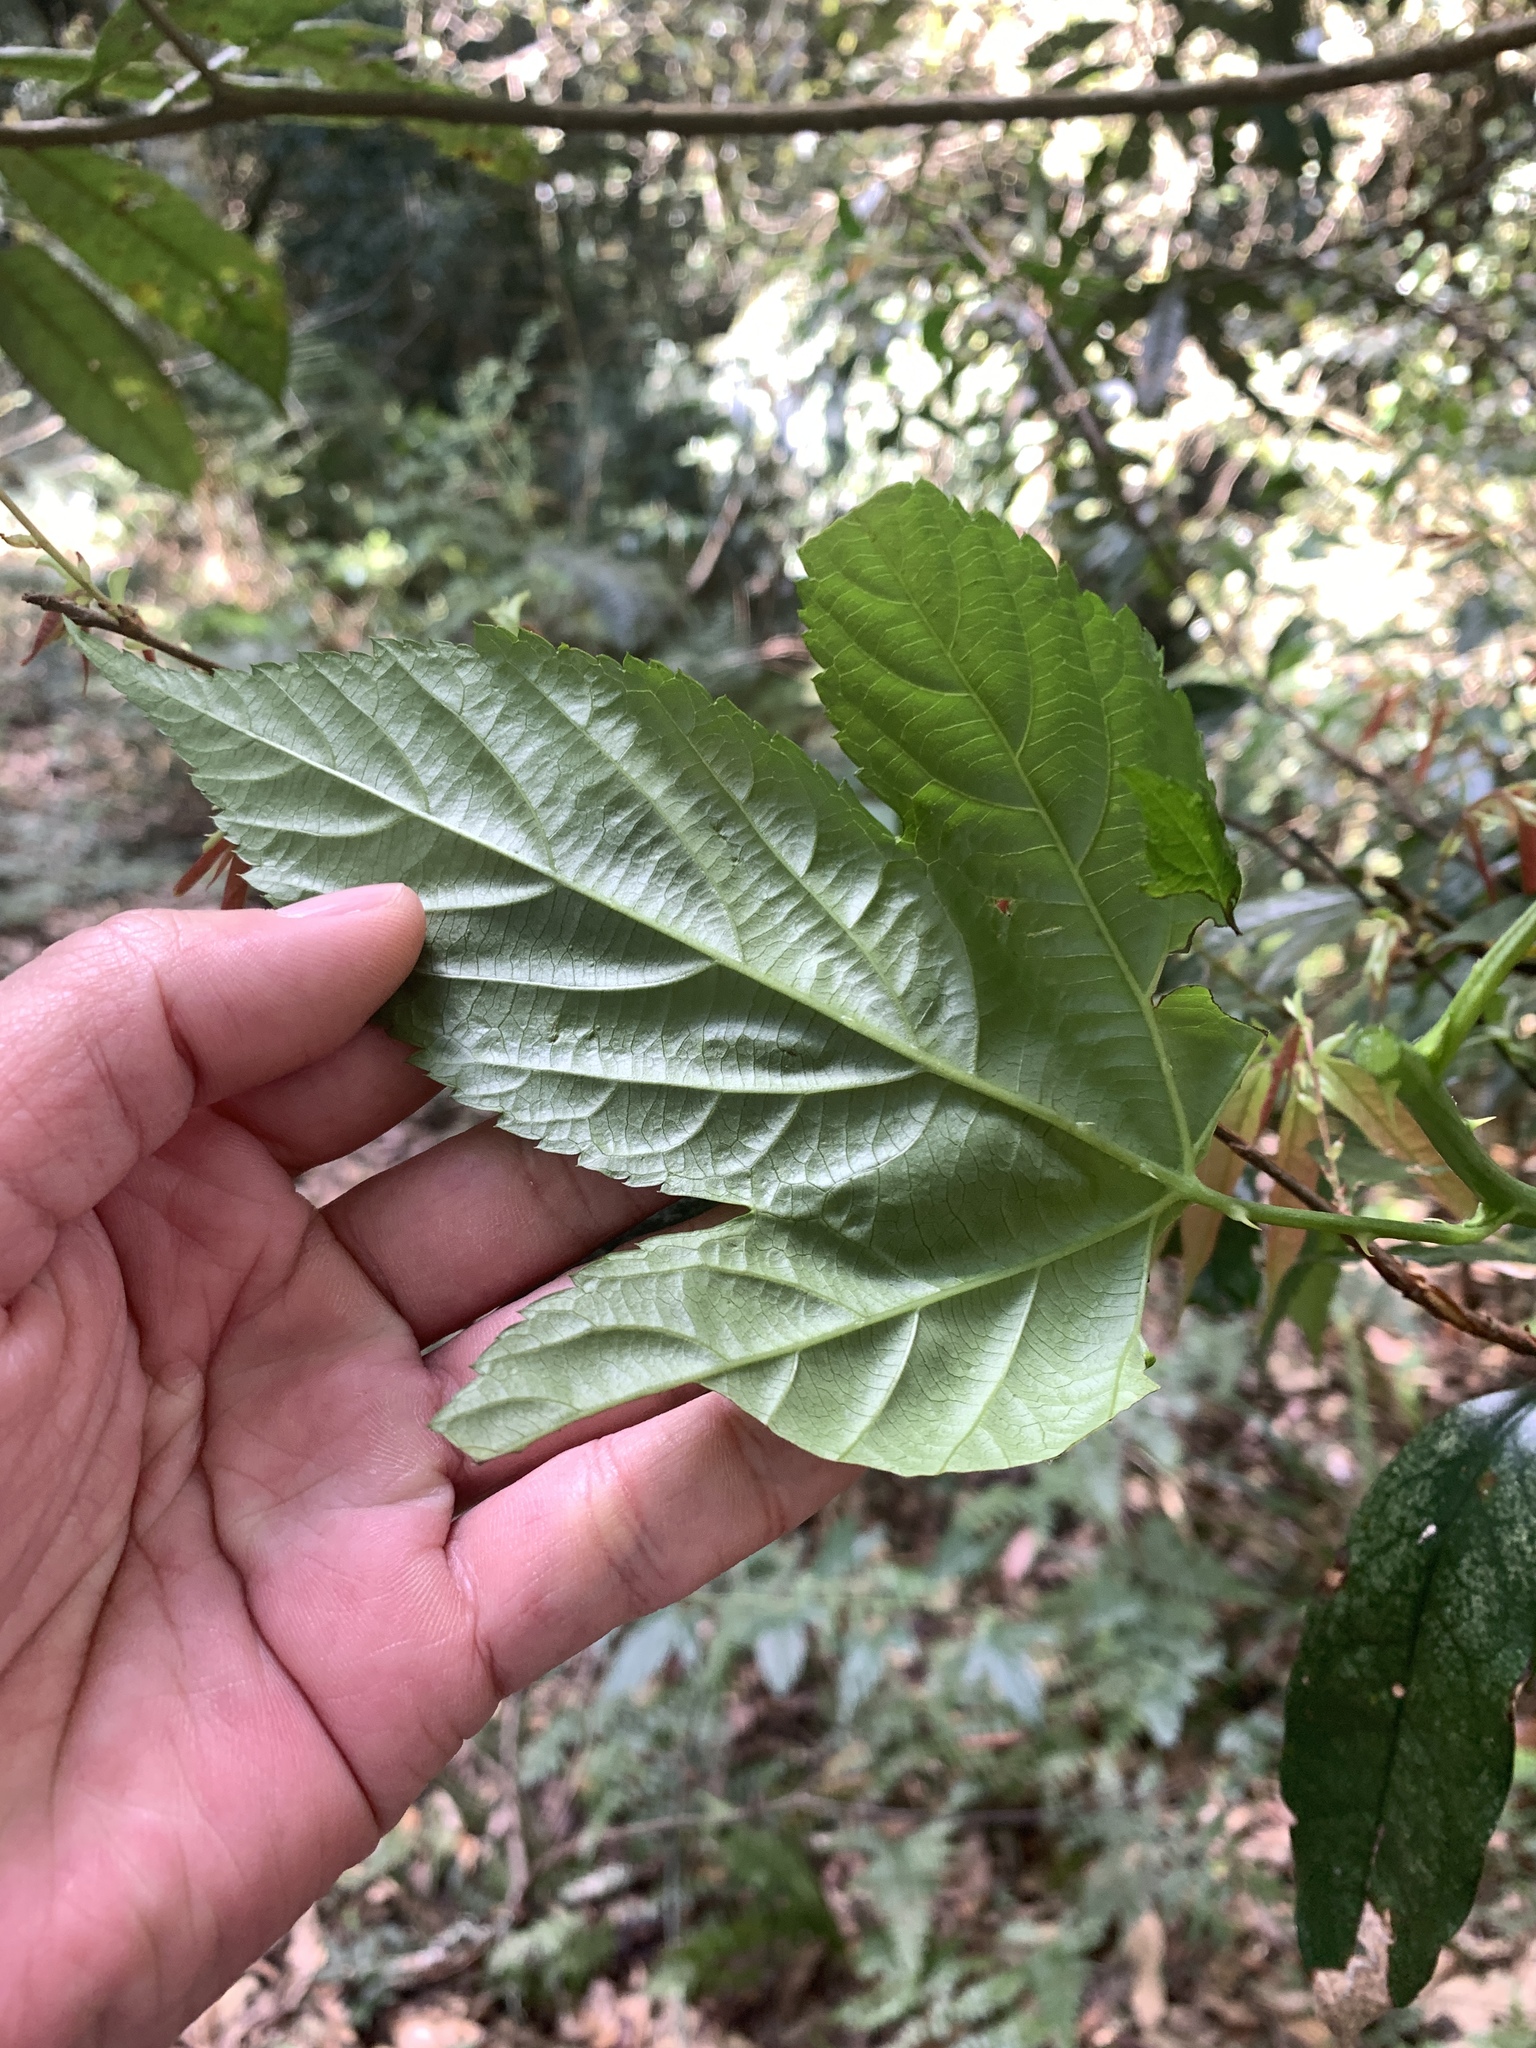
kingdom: Plantae
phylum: Tracheophyta
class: Magnoliopsida
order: Rosales
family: Rosaceae
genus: Rubus
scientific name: Rubus corchorifolius
